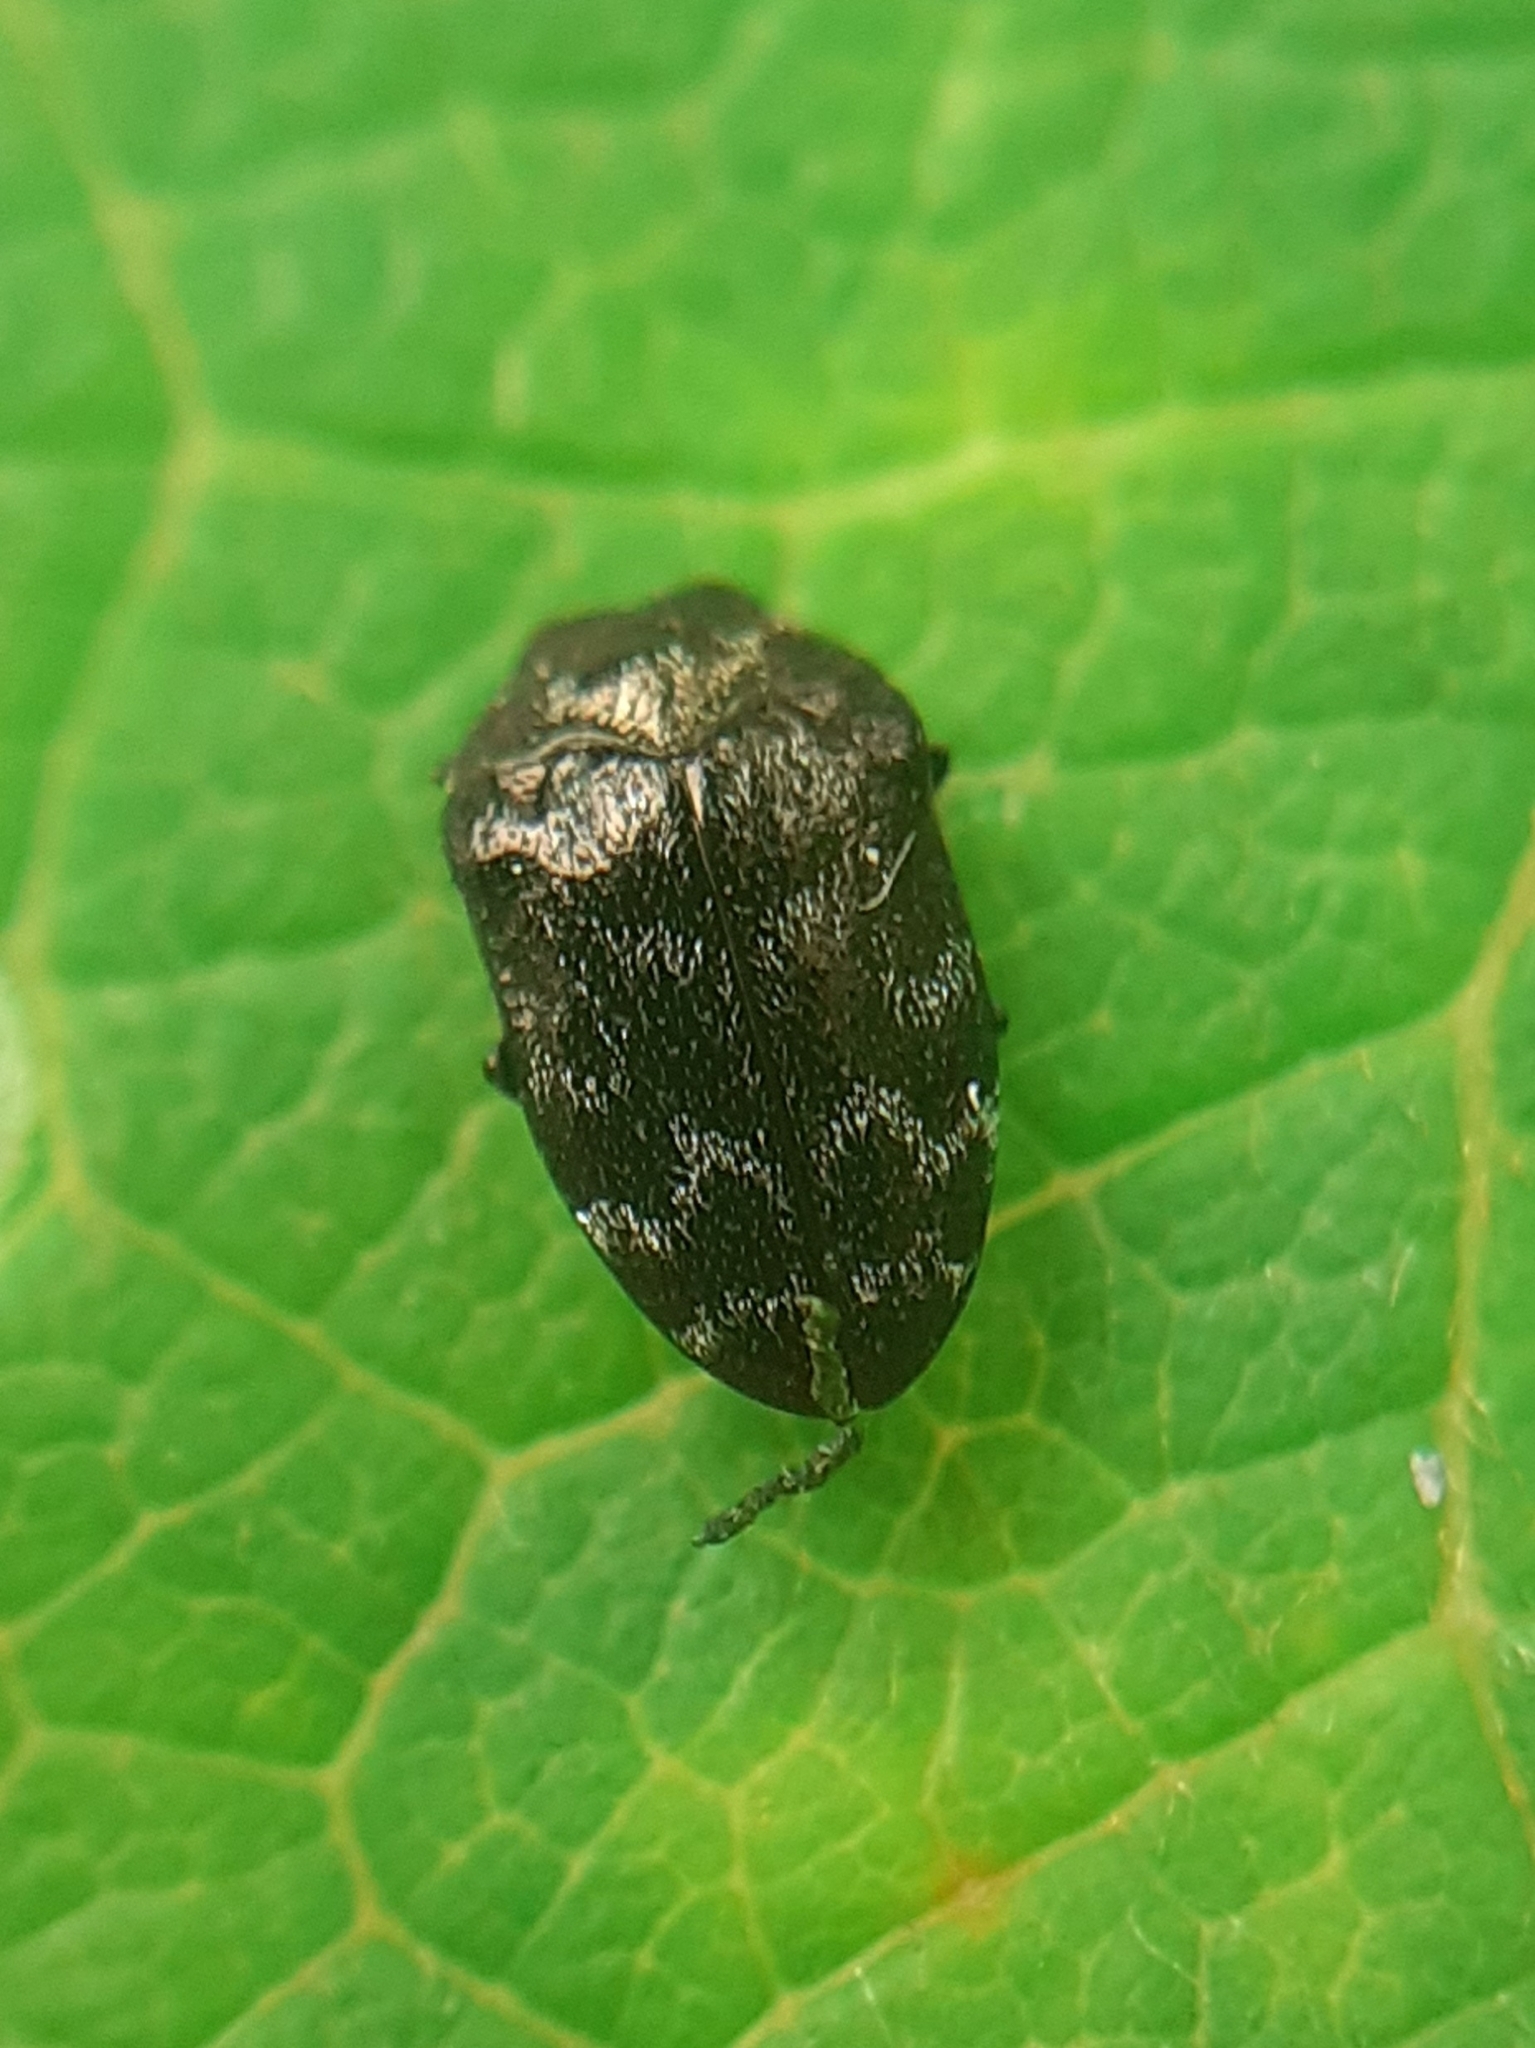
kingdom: Animalia
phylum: Arthropoda
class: Insecta
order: Coleoptera
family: Buprestidae
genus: Trachys
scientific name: Trachys minutus
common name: Metallic wood-boring beetle
